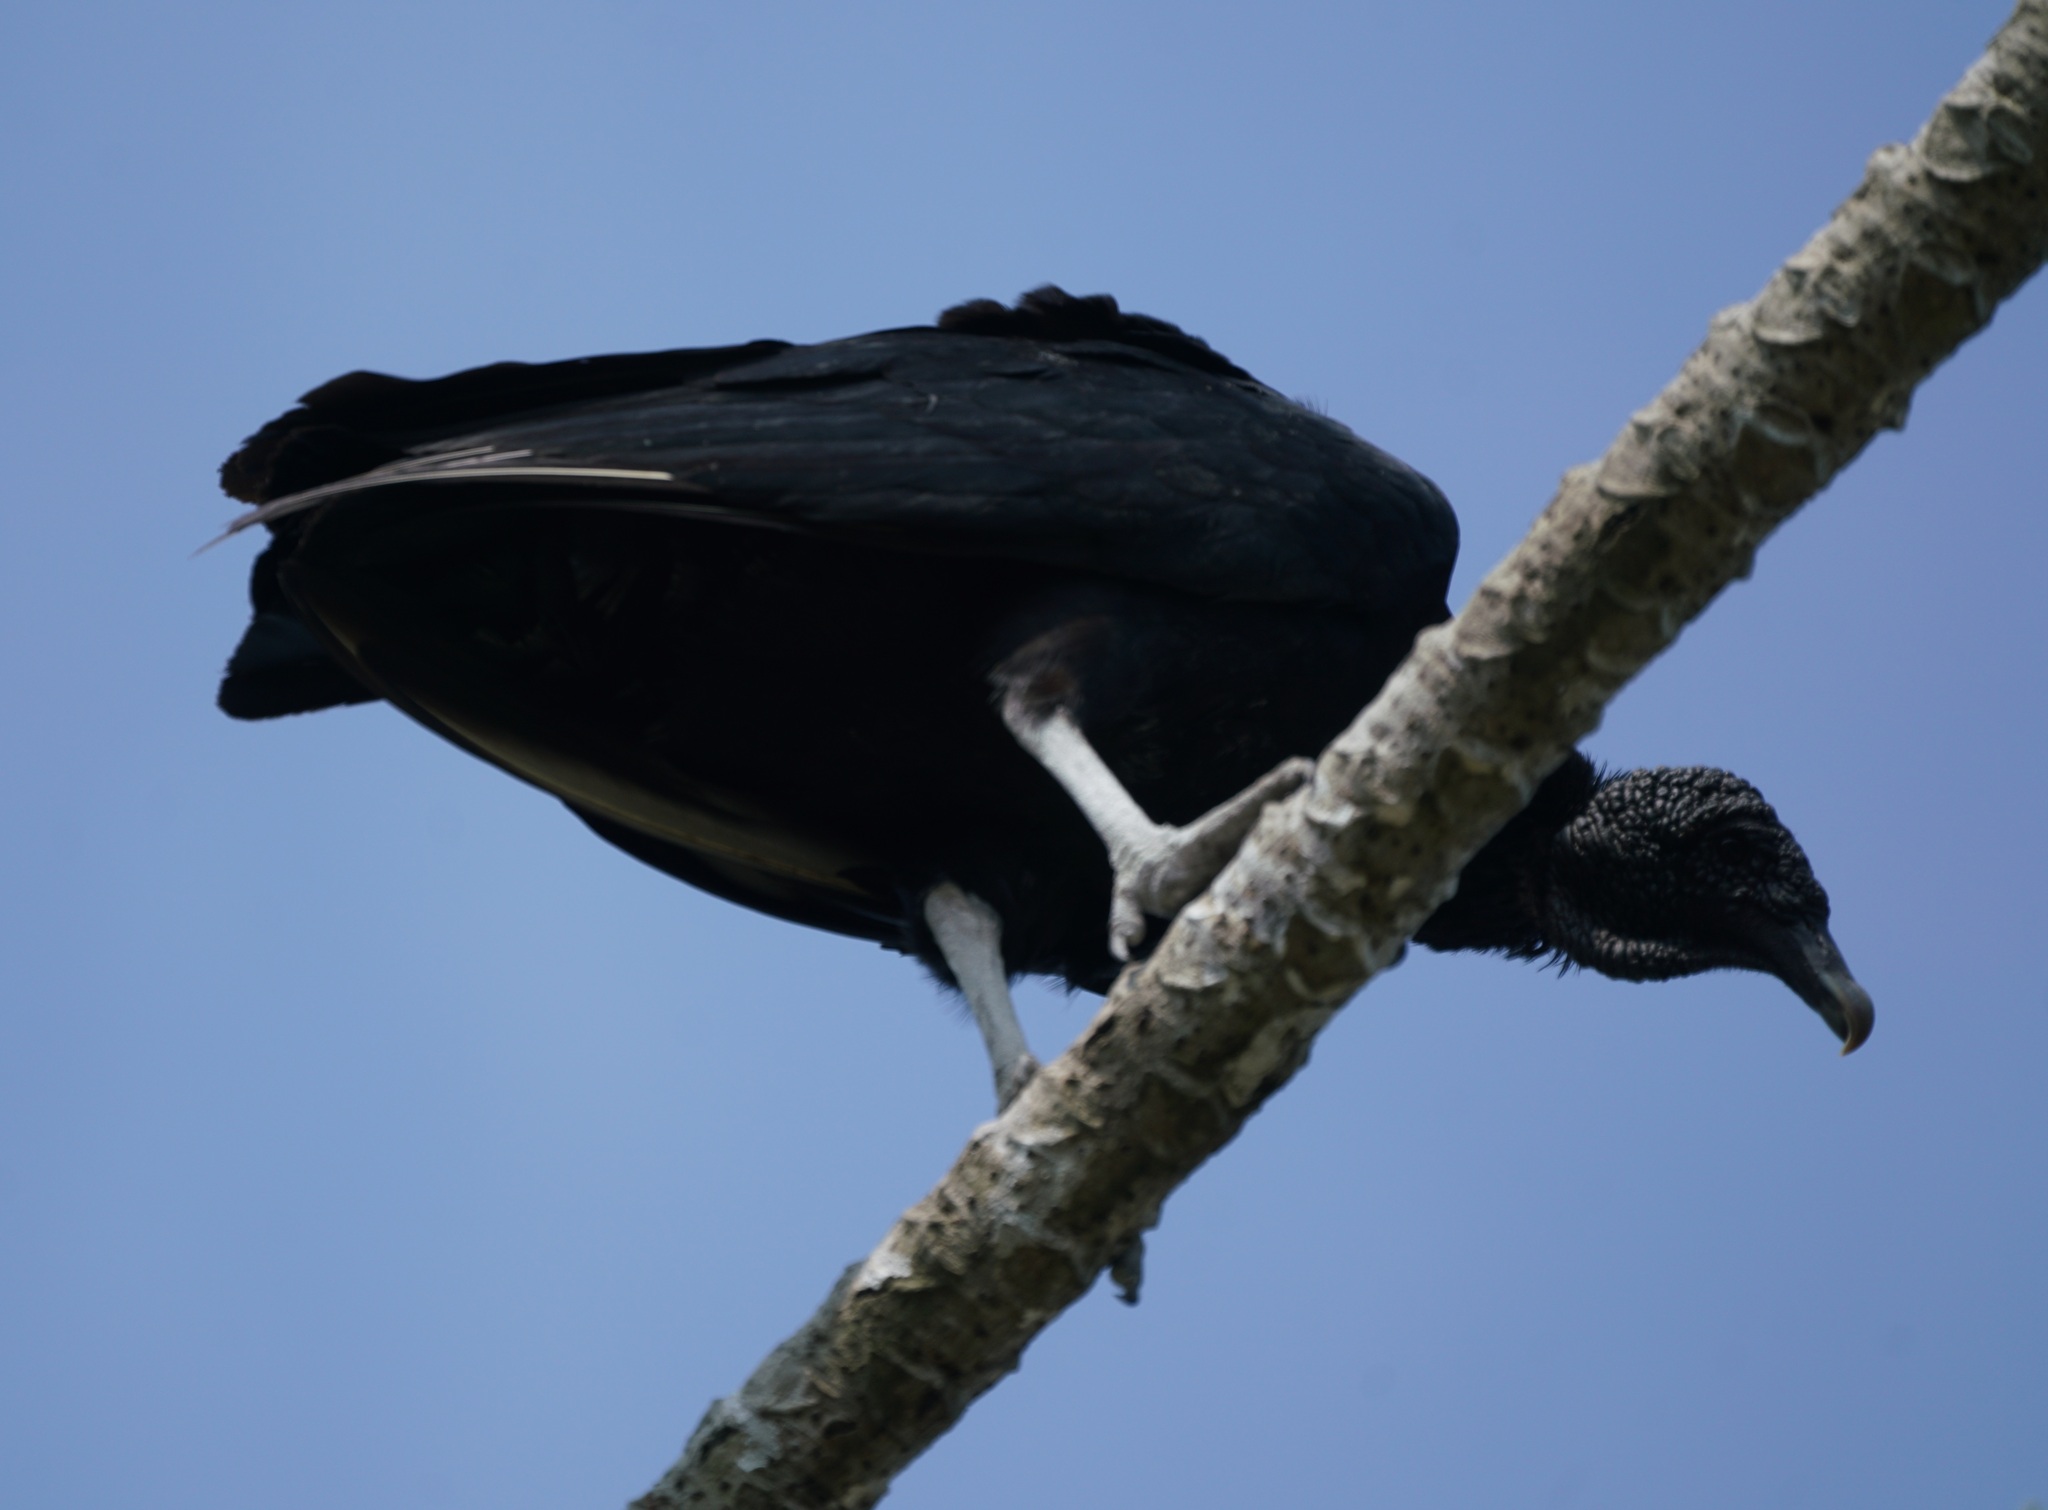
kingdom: Animalia
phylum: Chordata
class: Aves
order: Accipitriformes
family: Cathartidae
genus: Coragyps
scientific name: Coragyps atratus
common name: Black vulture
